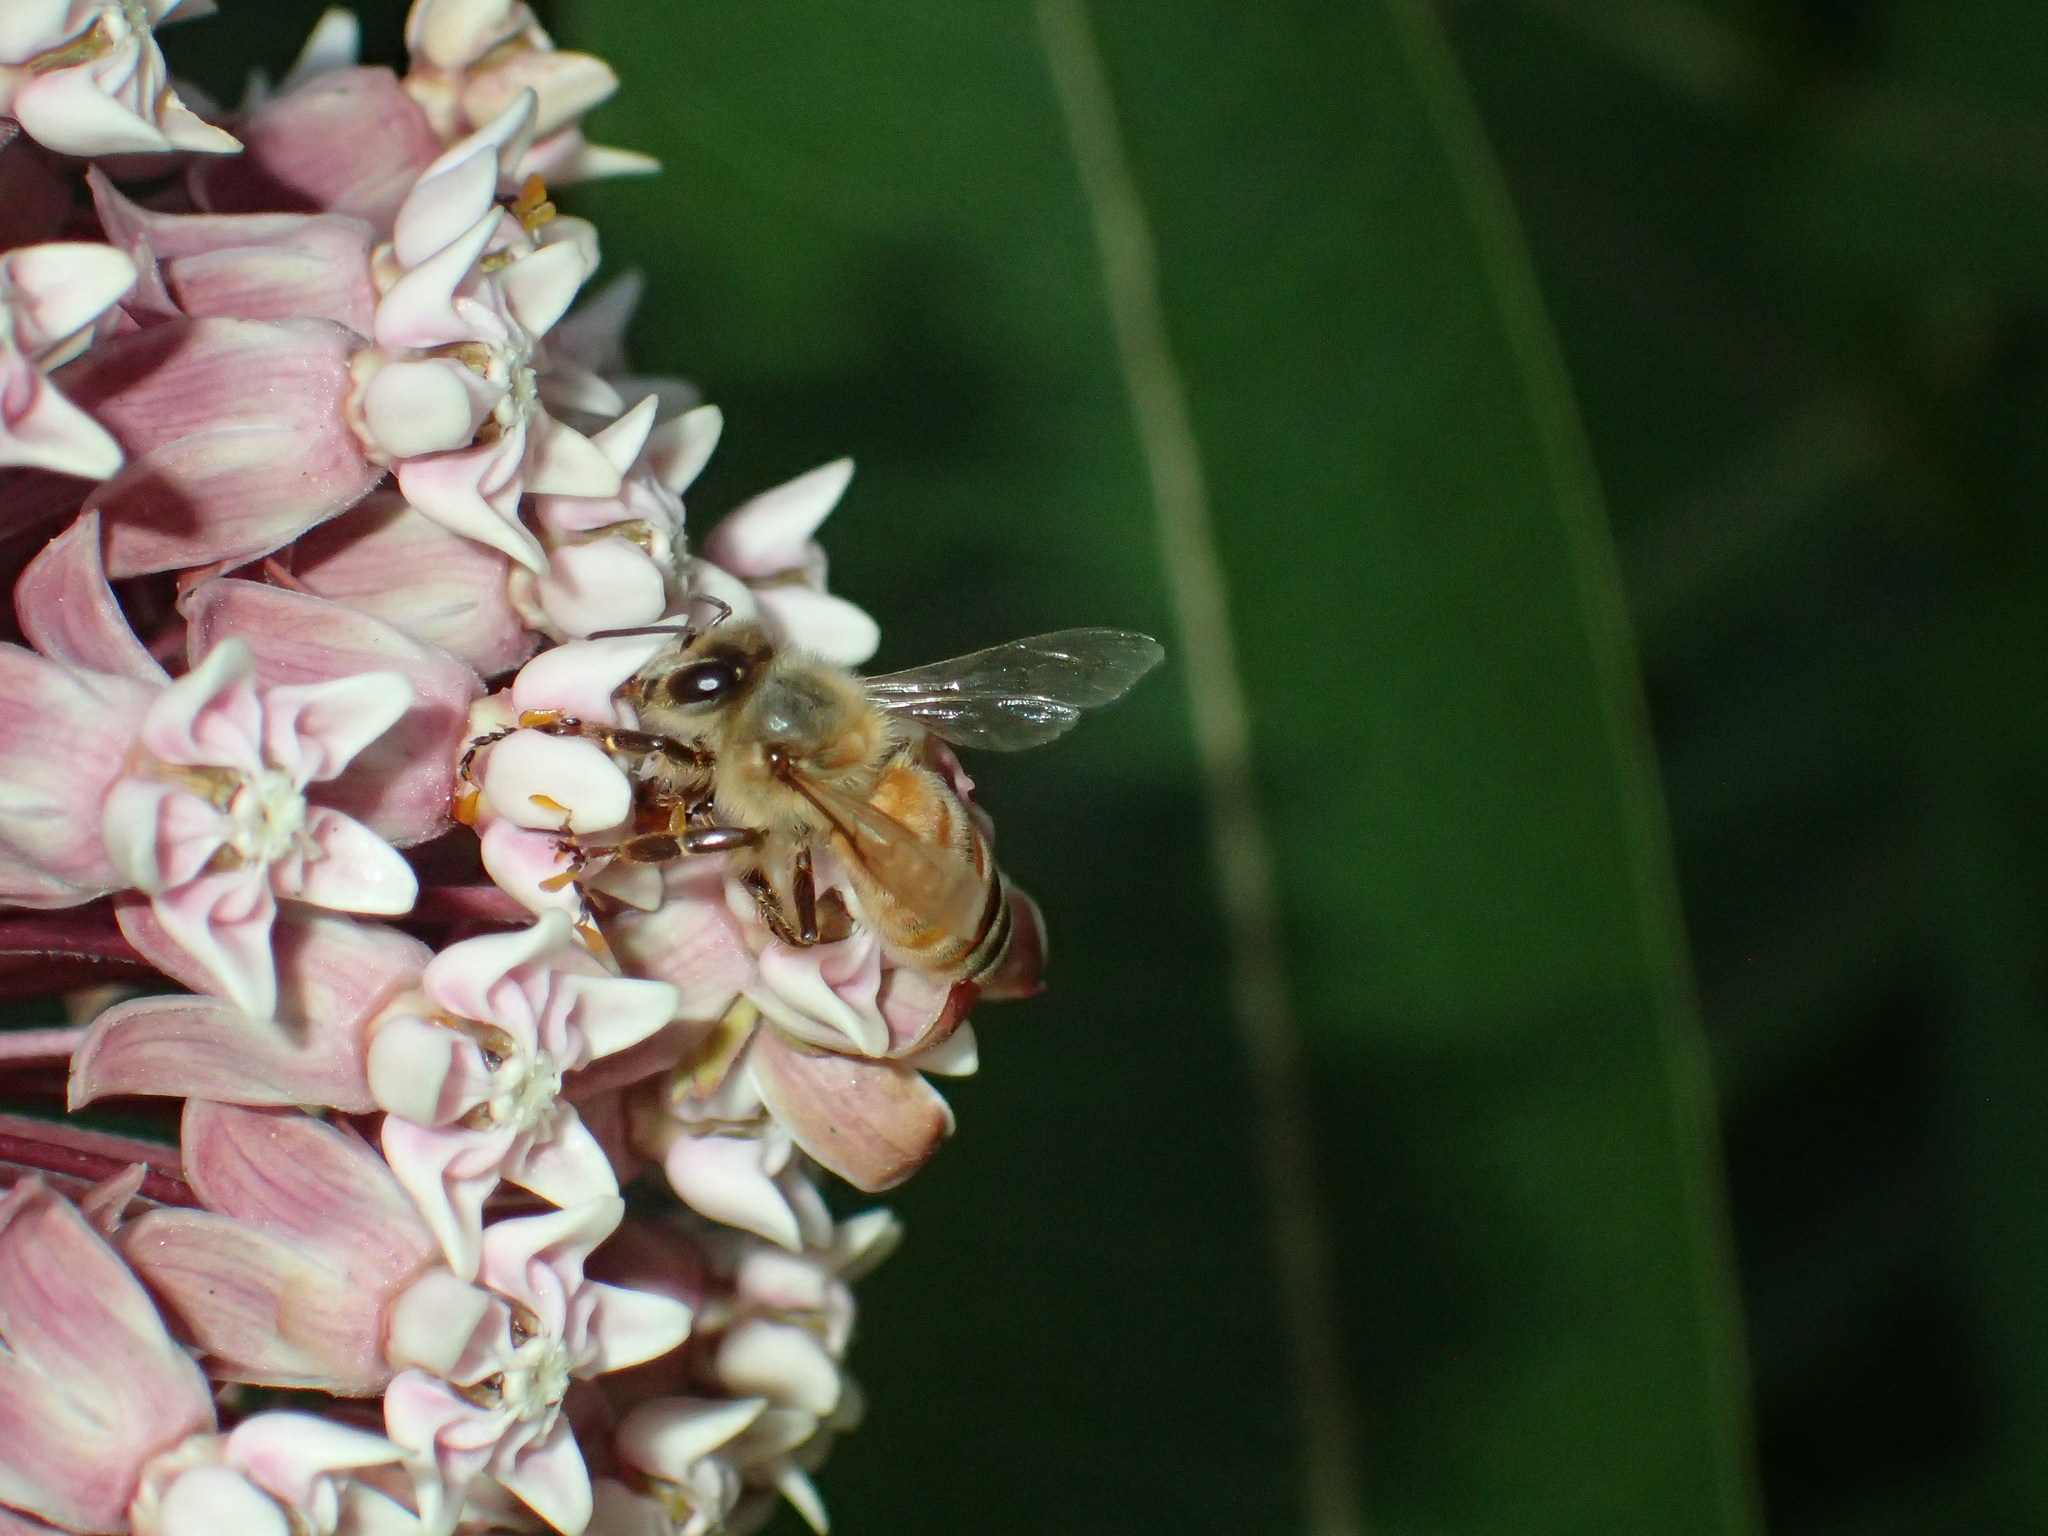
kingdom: Animalia
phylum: Arthropoda
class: Insecta
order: Hymenoptera
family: Apidae
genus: Apis
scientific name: Apis mellifera
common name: Honey bee
